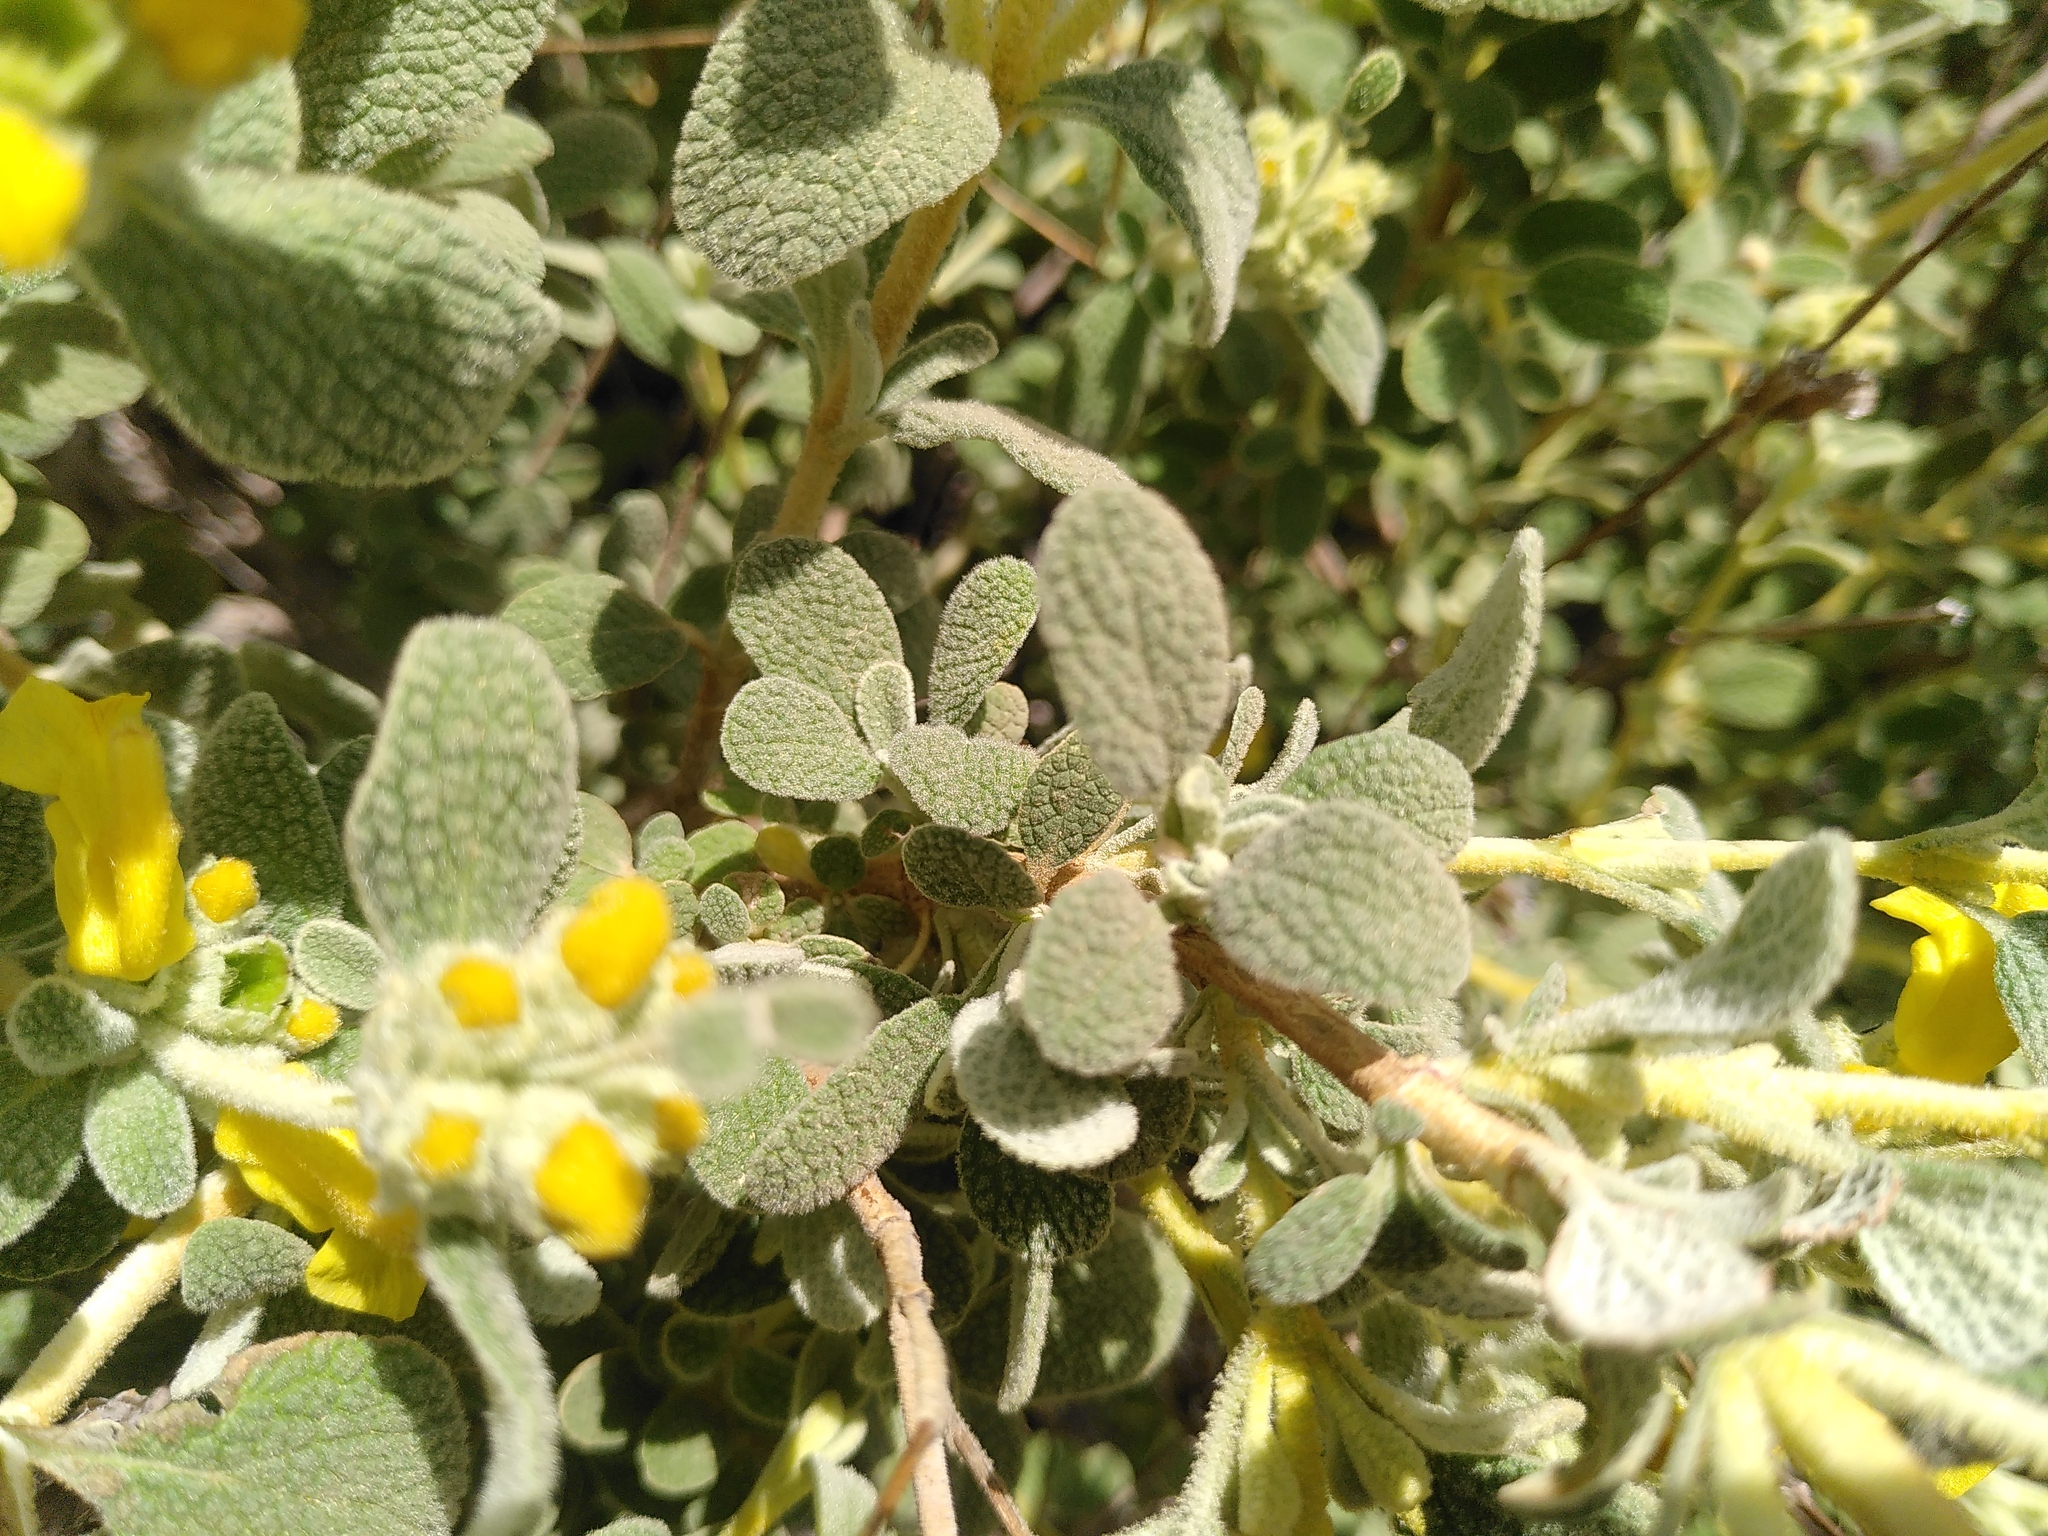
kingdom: Plantae
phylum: Tracheophyta
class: Magnoliopsida
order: Lamiales
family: Lamiaceae
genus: Phlomis
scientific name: Phlomis lanata
